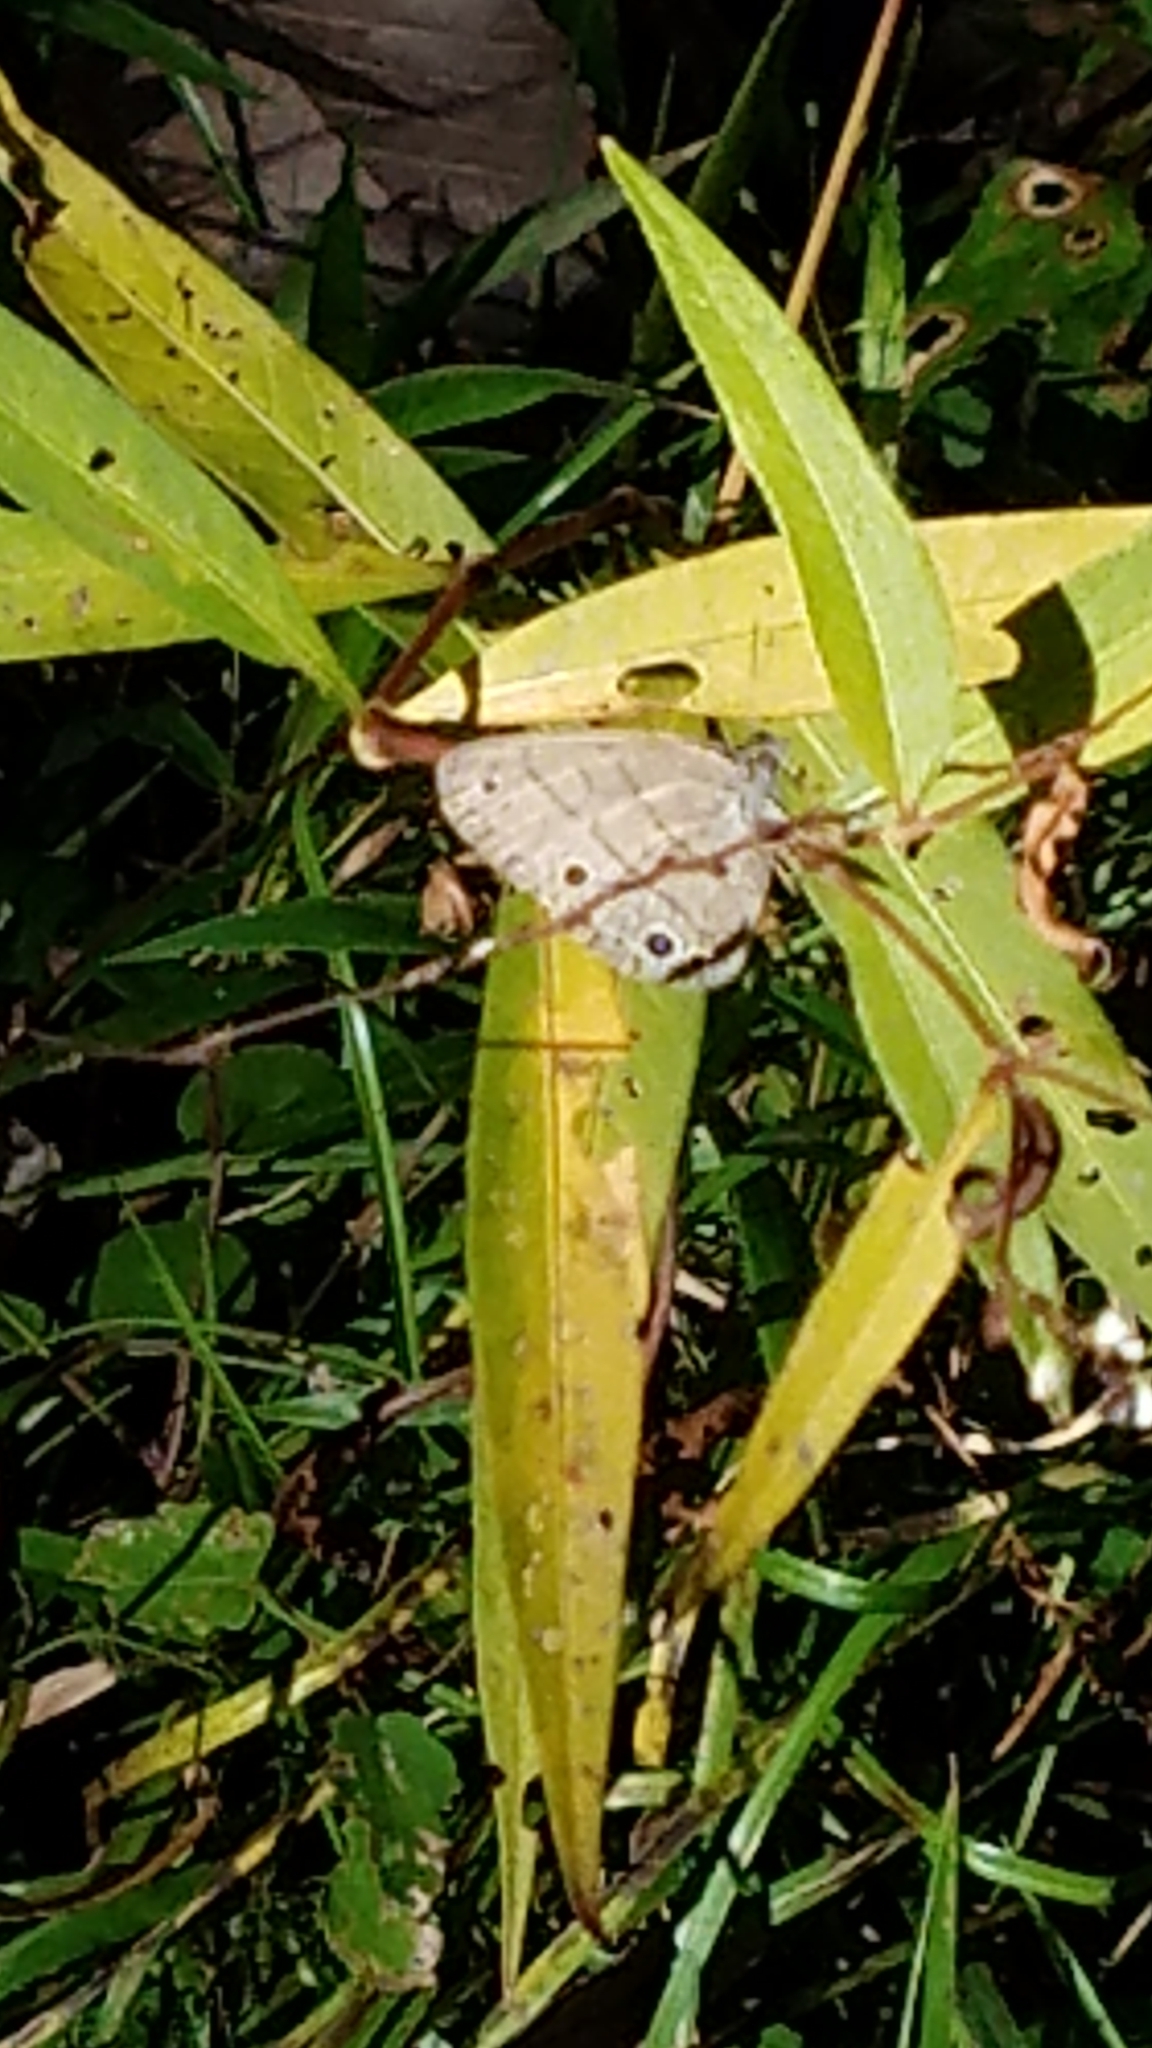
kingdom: Animalia
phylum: Arthropoda
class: Insecta
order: Lepidoptera
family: Nymphalidae
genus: Hermeuptychia
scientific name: Hermeuptychia hermes
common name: Hermes satyr
